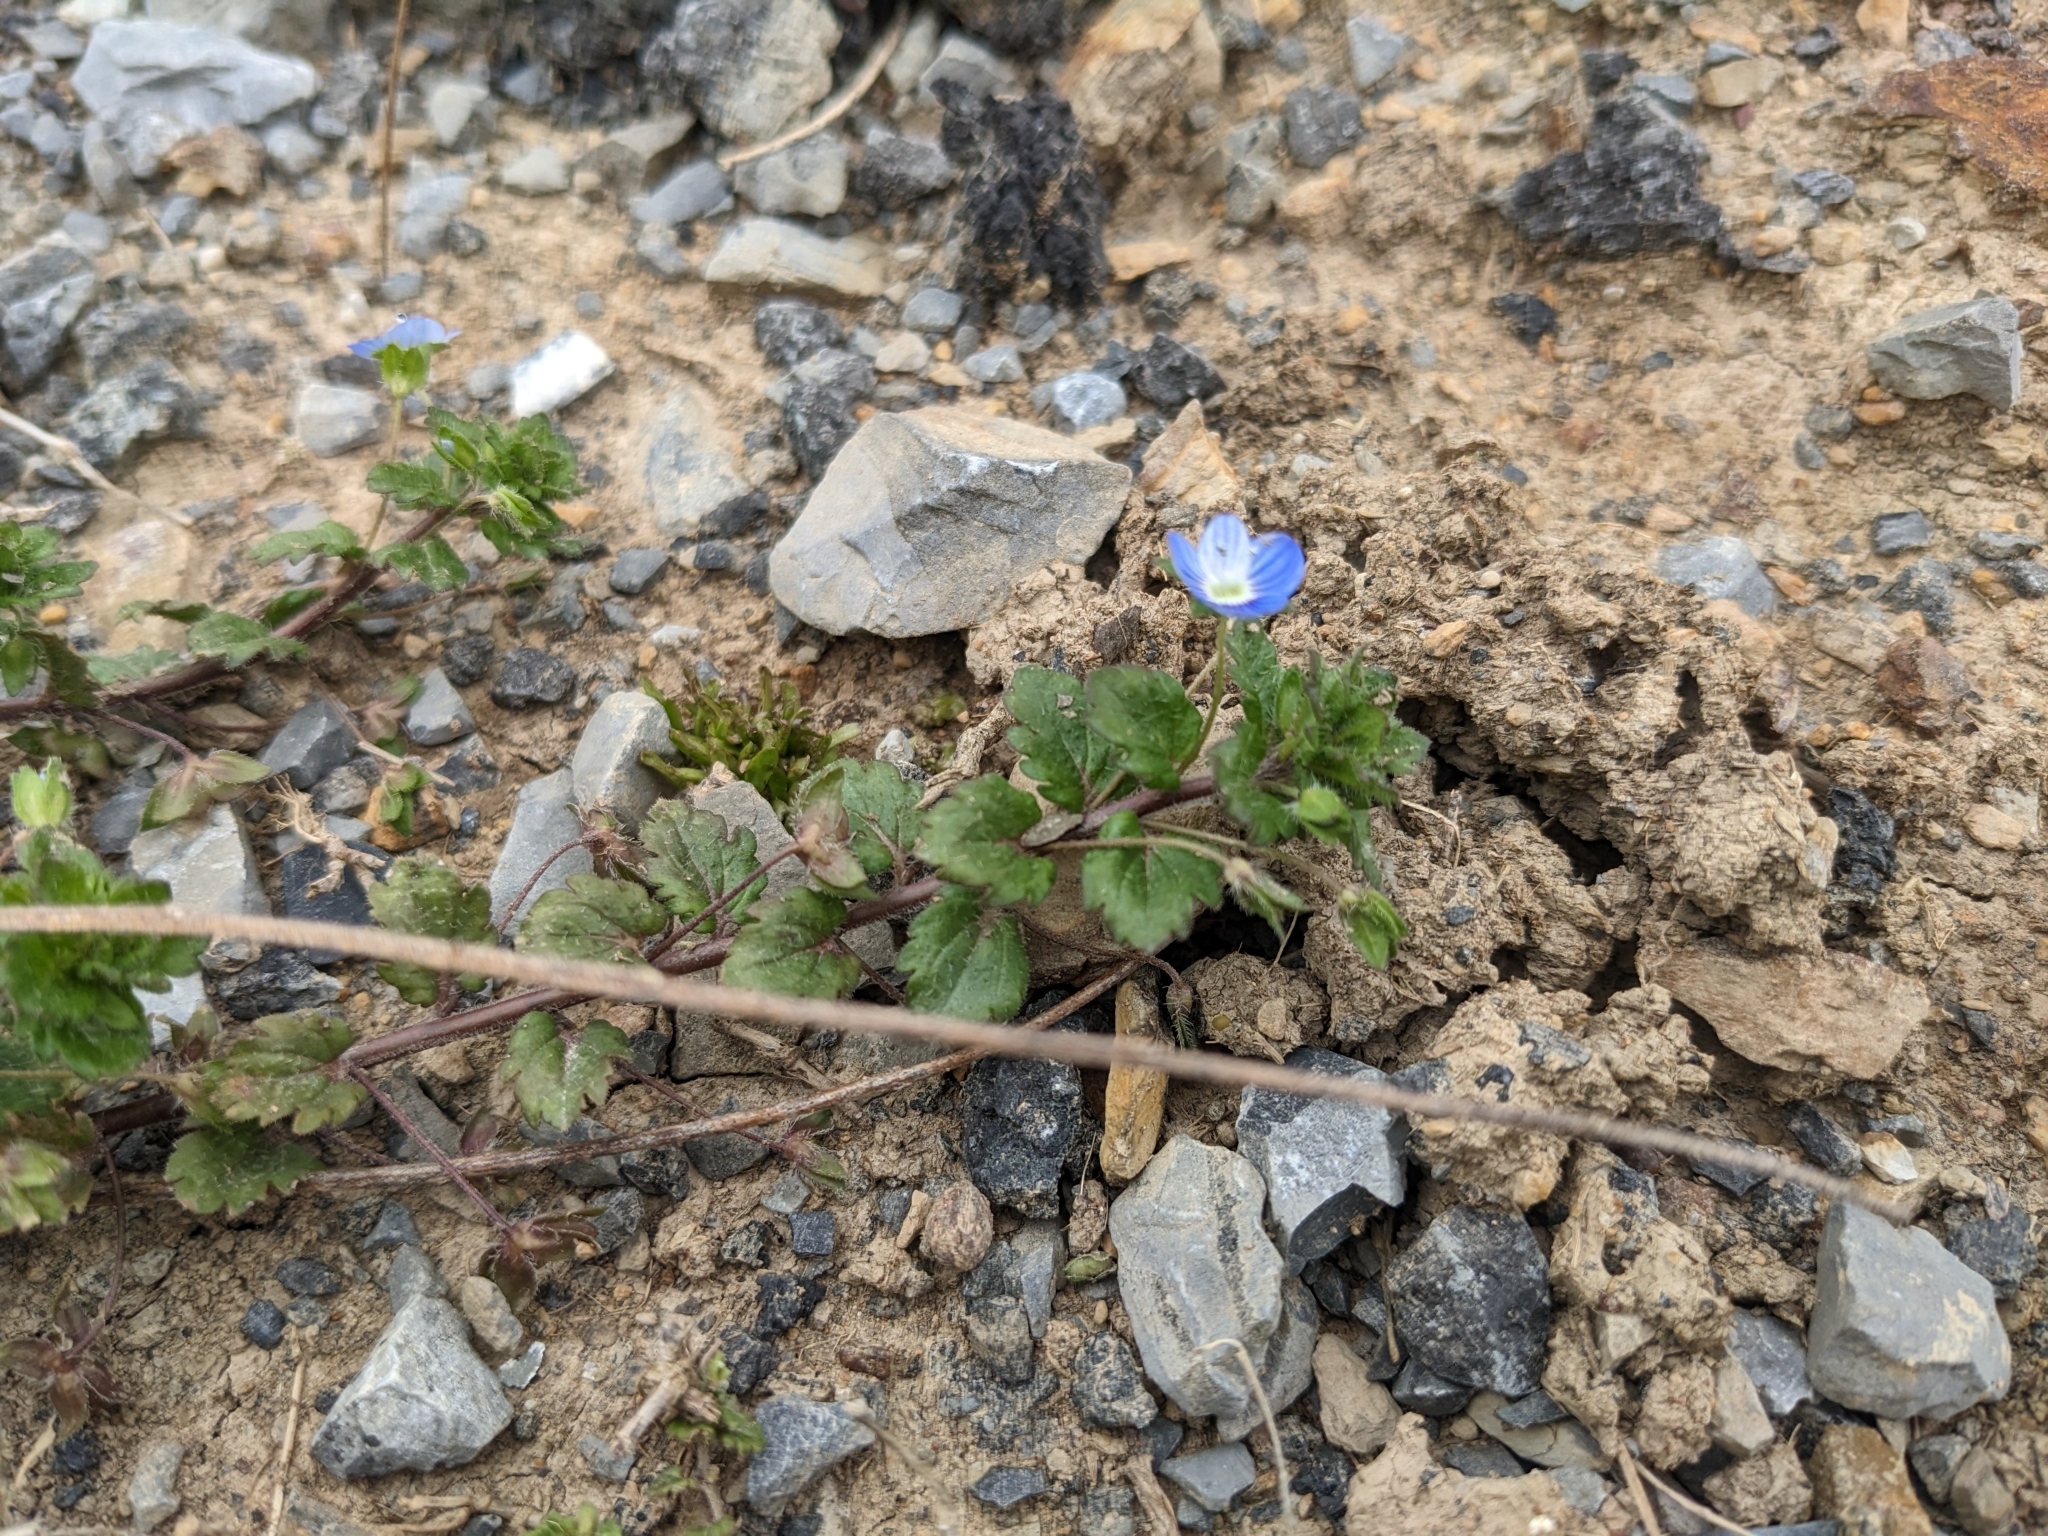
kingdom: Plantae
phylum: Tracheophyta
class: Magnoliopsida
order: Lamiales
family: Plantaginaceae
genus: Veronica
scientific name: Veronica persica
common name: Common field-speedwell
